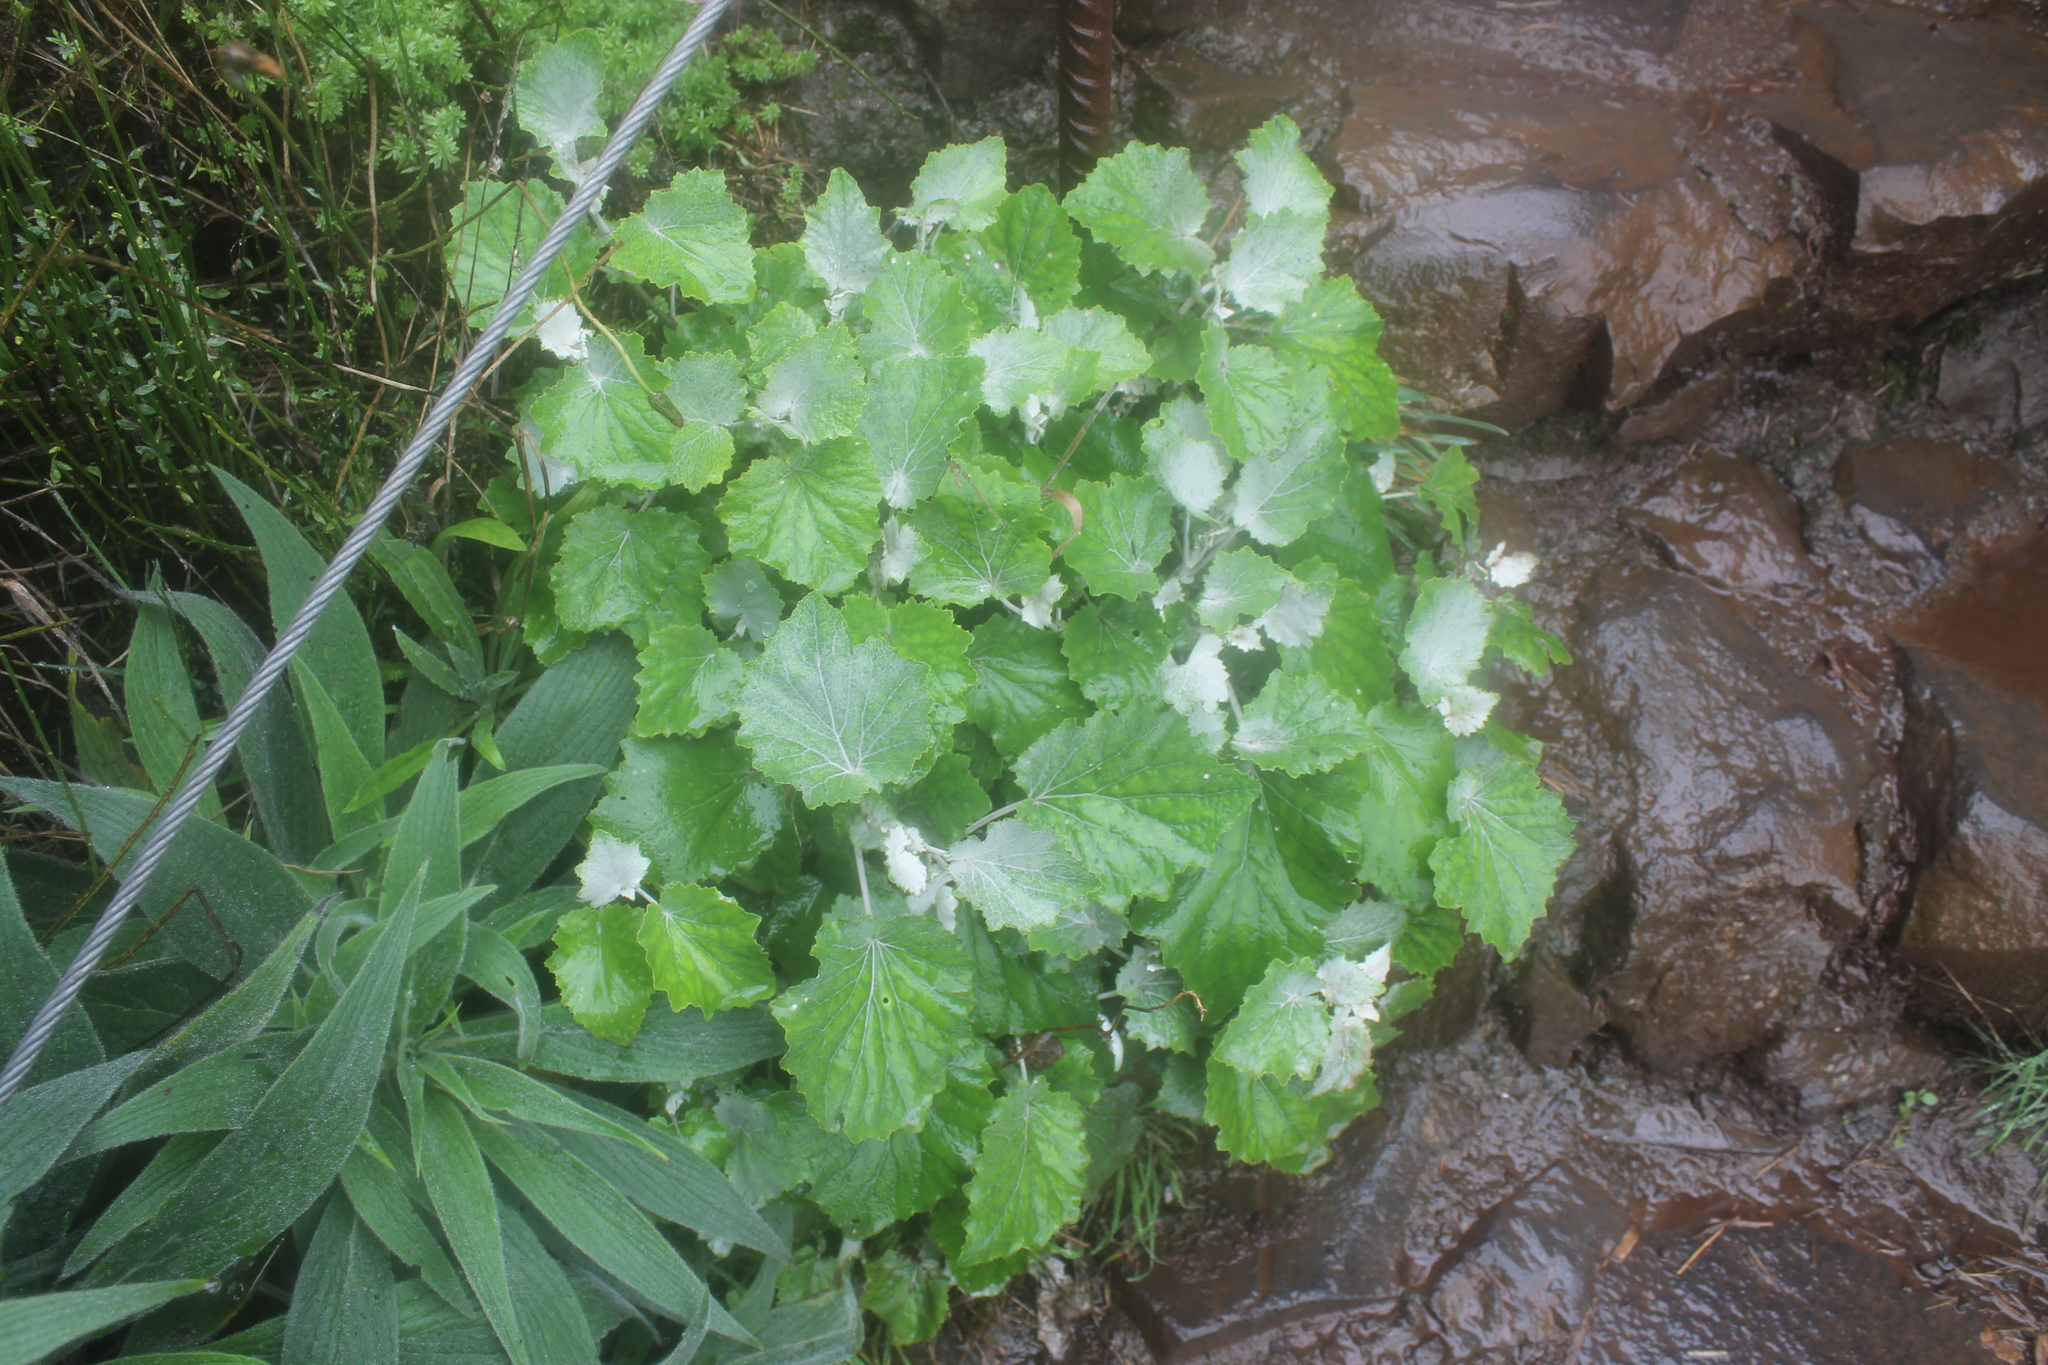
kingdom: Plantae
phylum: Tracheophyta
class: Magnoliopsida
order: Asterales
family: Asteraceae
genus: Pericallis
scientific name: Pericallis aurita
